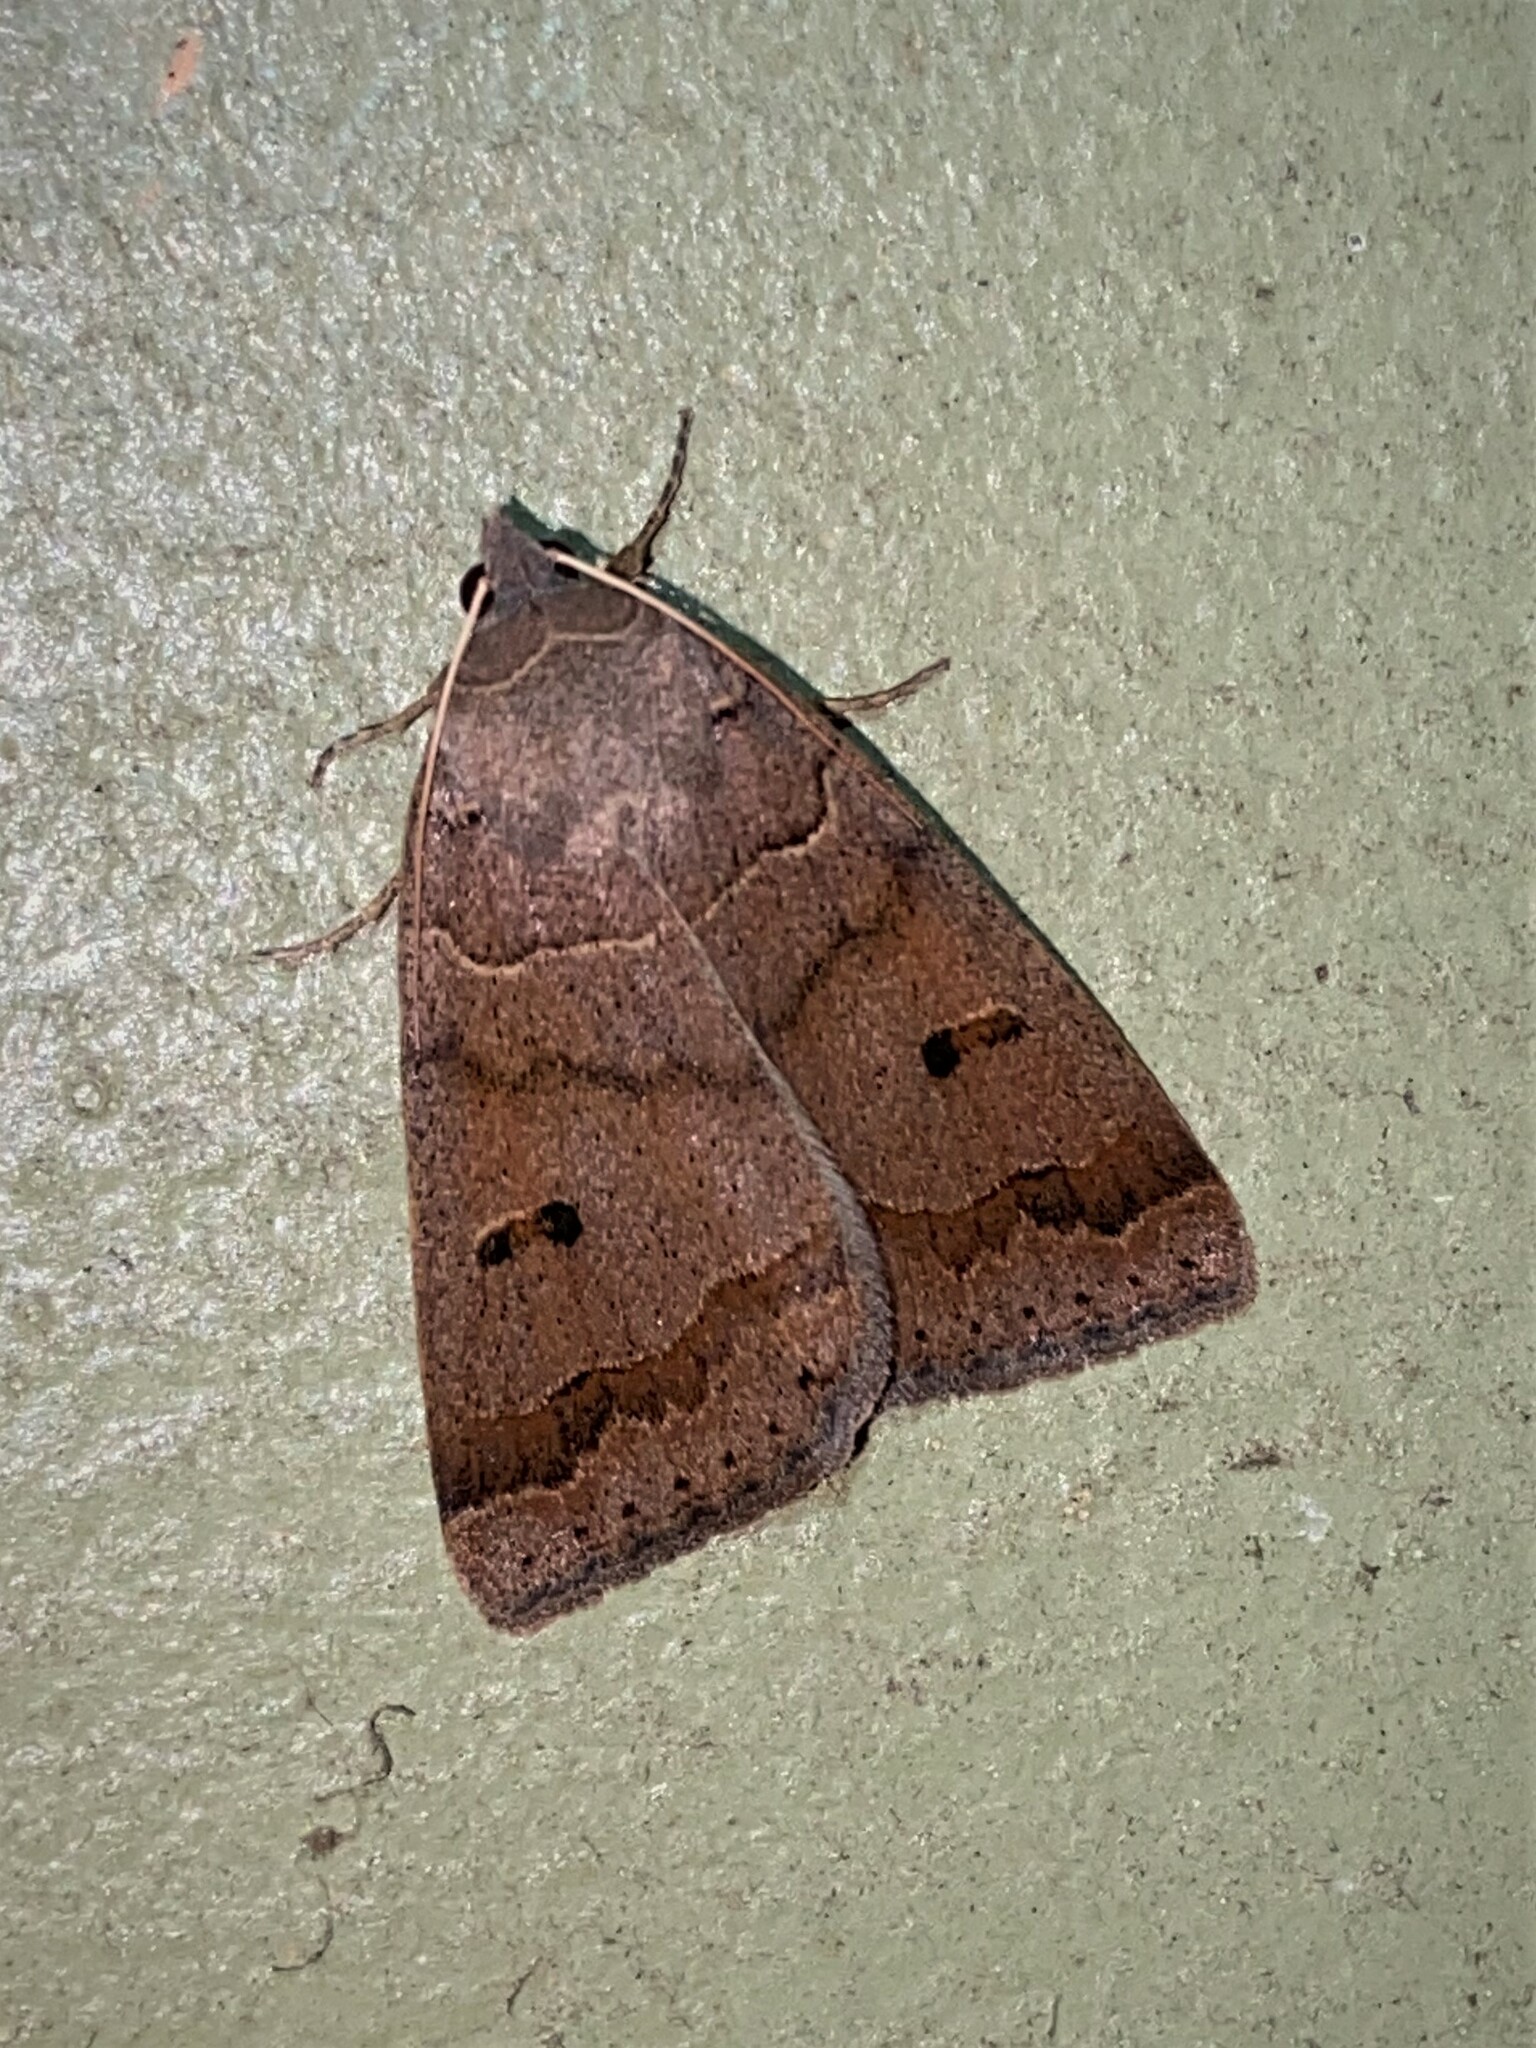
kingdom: Animalia
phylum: Arthropoda
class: Insecta
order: Lepidoptera
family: Erebidae
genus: Phoberia
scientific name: Phoberia atomaris
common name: Common oak moth
